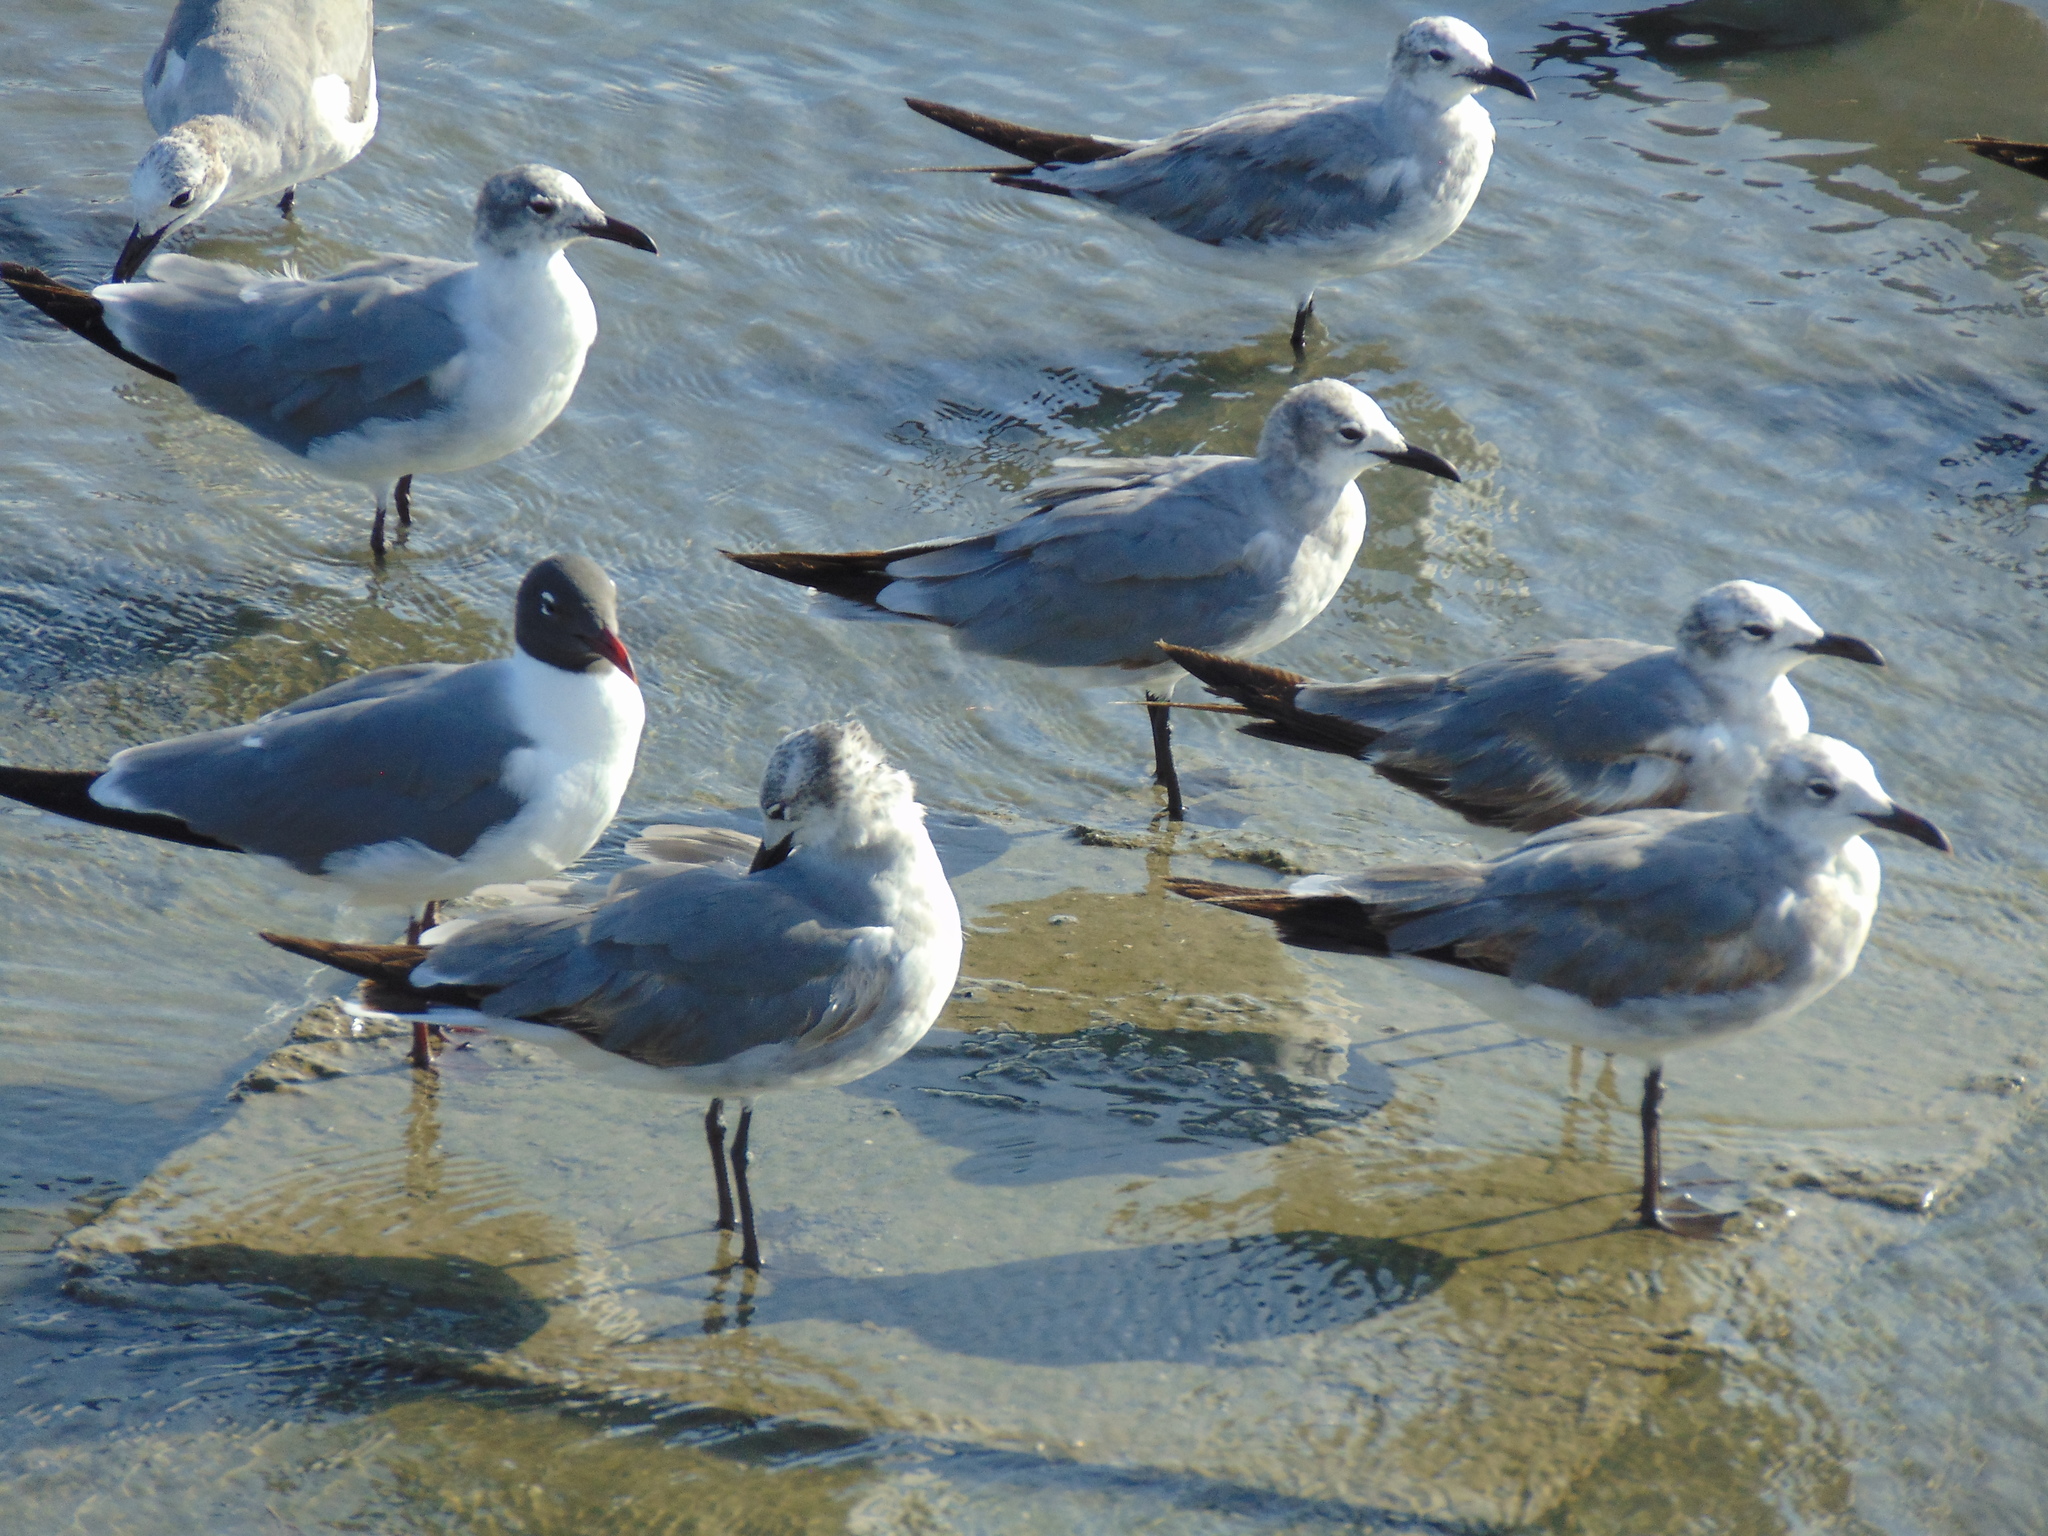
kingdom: Animalia
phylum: Chordata
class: Aves
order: Charadriiformes
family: Laridae
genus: Leucophaeus
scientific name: Leucophaeus atricilla
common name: Laughing gull
